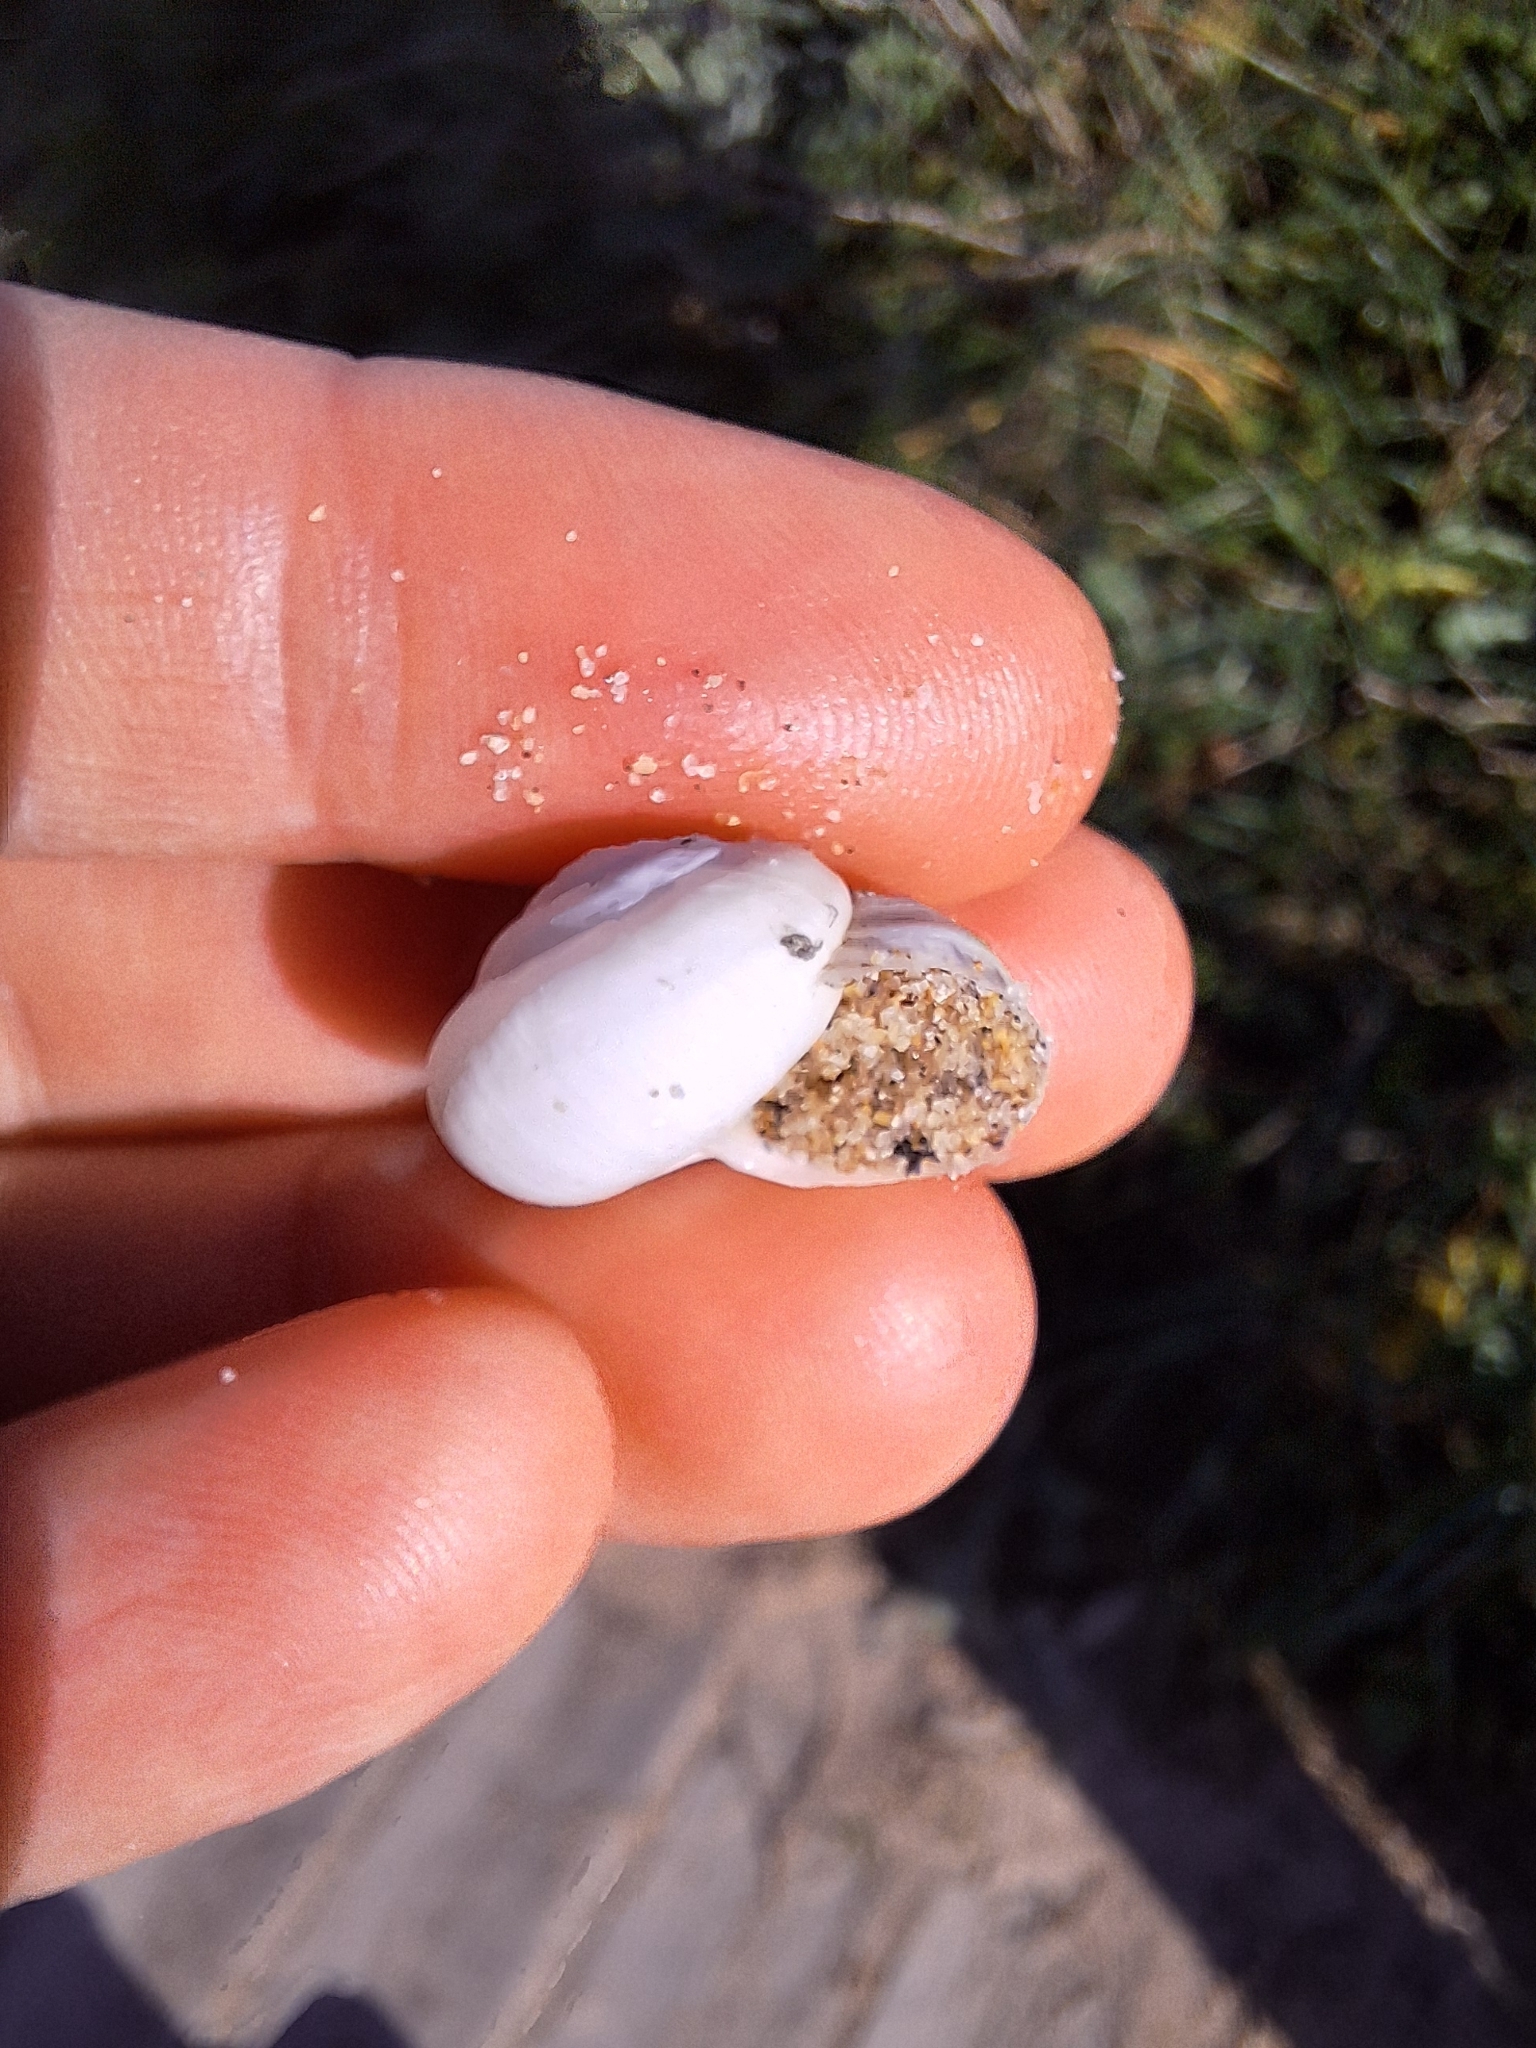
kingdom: Animalia
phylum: Mollusca
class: Gastropoda
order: Stylommatophora
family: Helicidae
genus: Theba
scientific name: Theba pisana
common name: White snail
